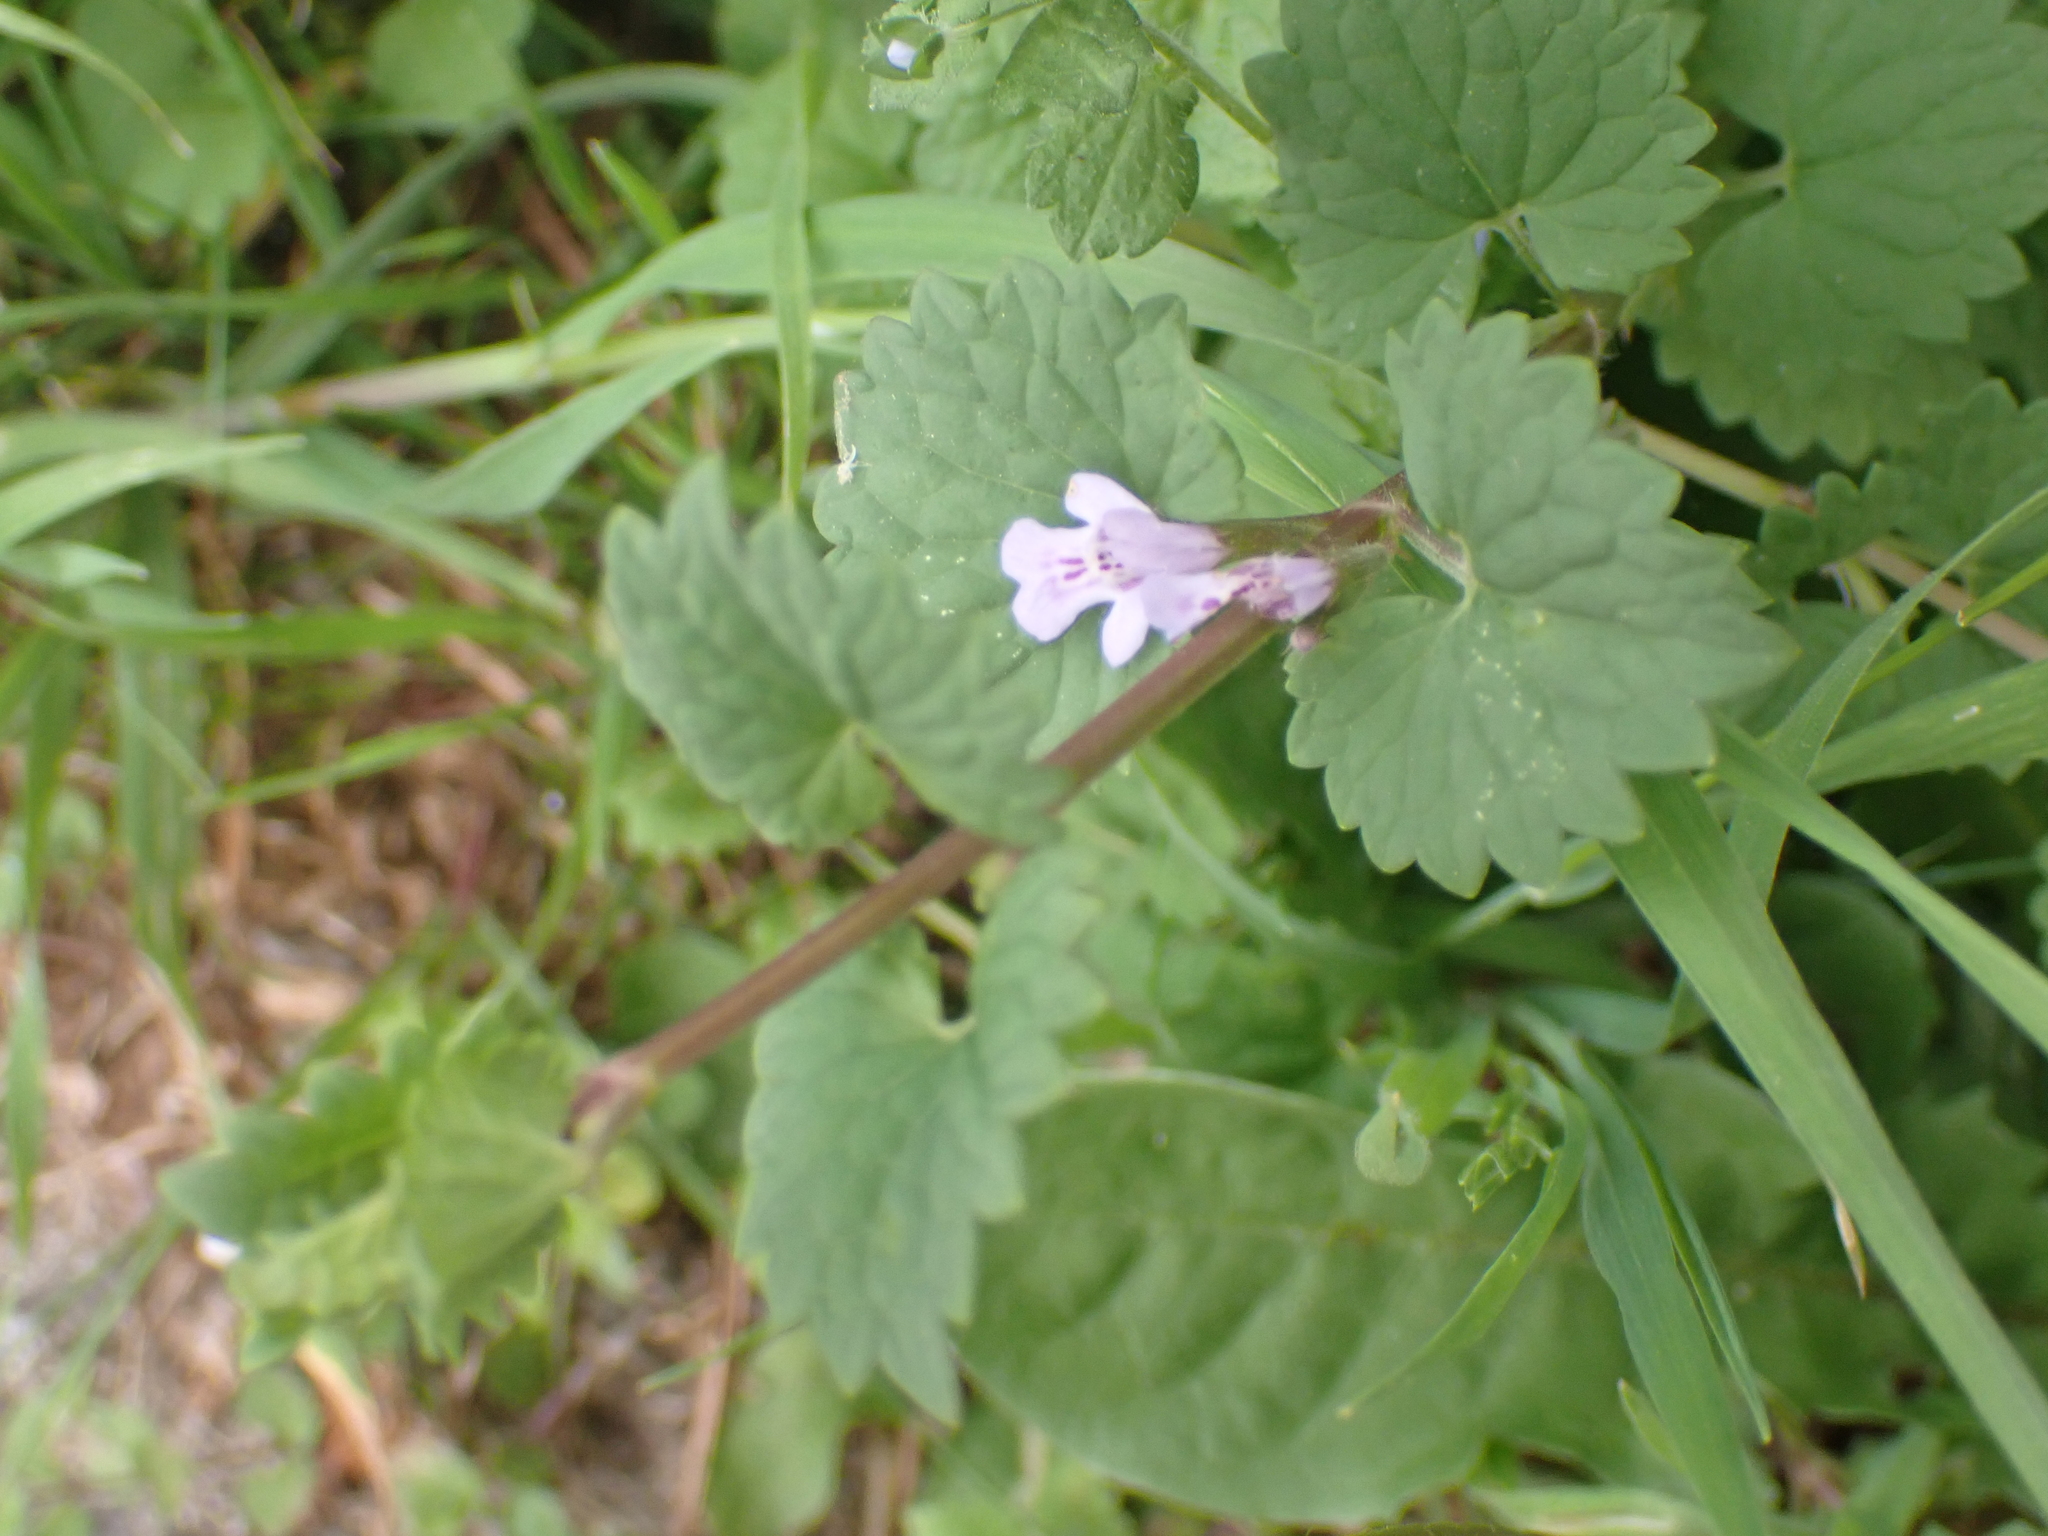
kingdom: Plantae
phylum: Tracheophyta
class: Magnoliopsida
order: Lamiales
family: Lamiaceae
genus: Glechoma
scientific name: Glechoma hederacea
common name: Ground ivy
